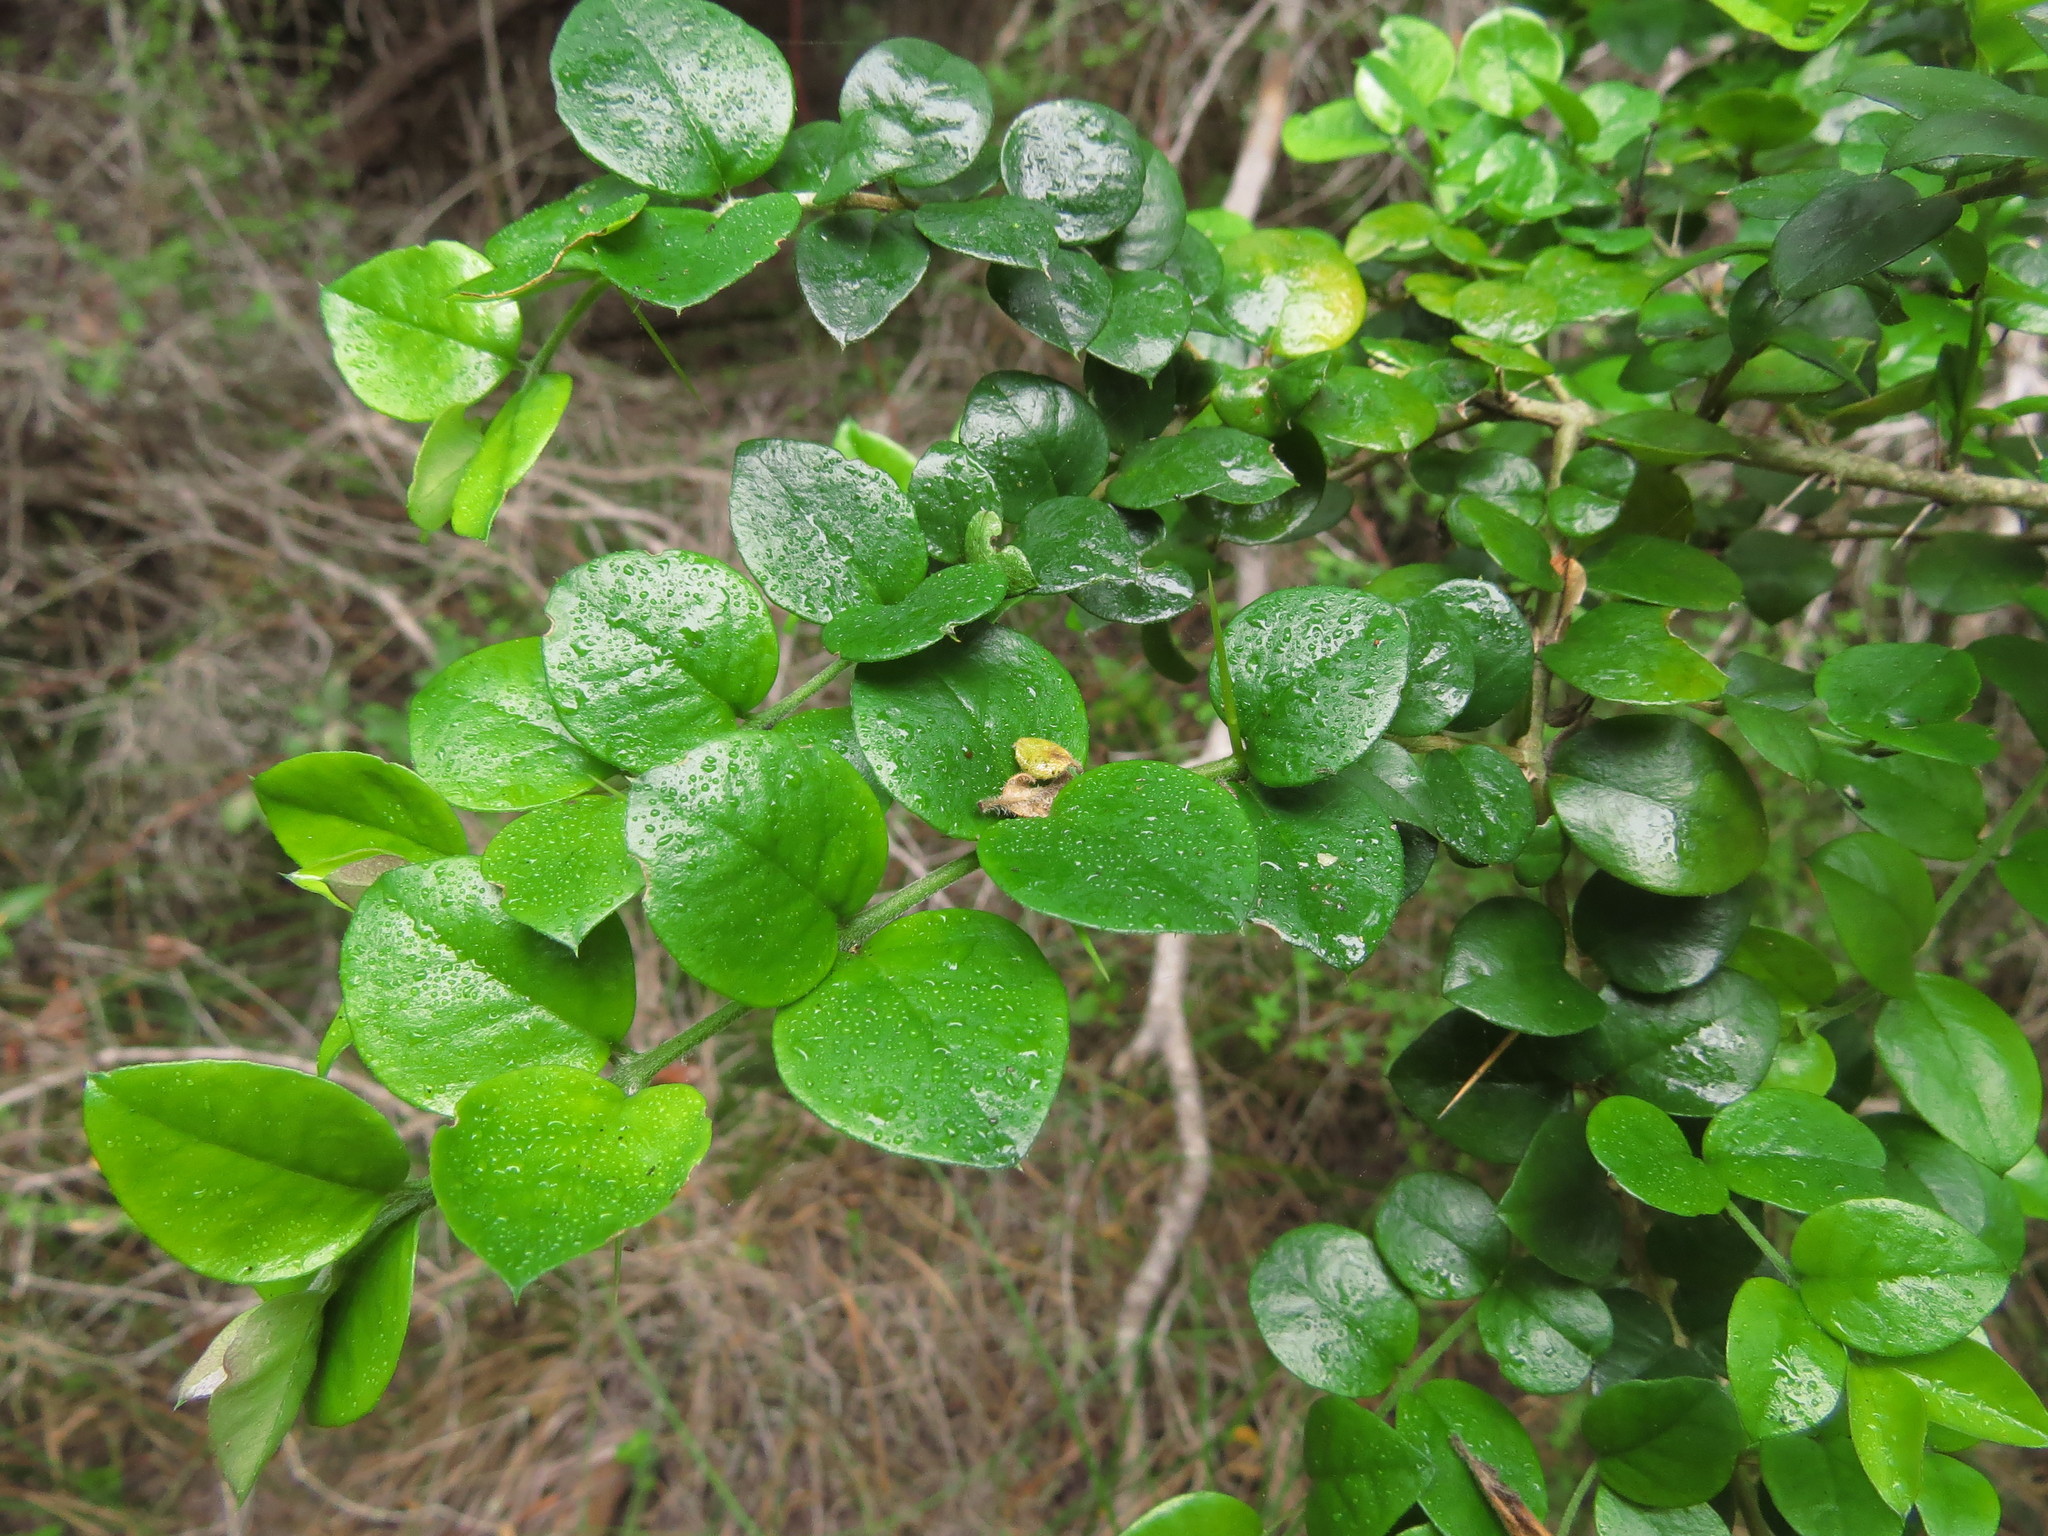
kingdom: Plantae
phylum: Tracheophyta
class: Magnoliopsida
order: Lamiales
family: Verbenaceae
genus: Rhaphithamnus
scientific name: Rhaphithamnus spinosus
